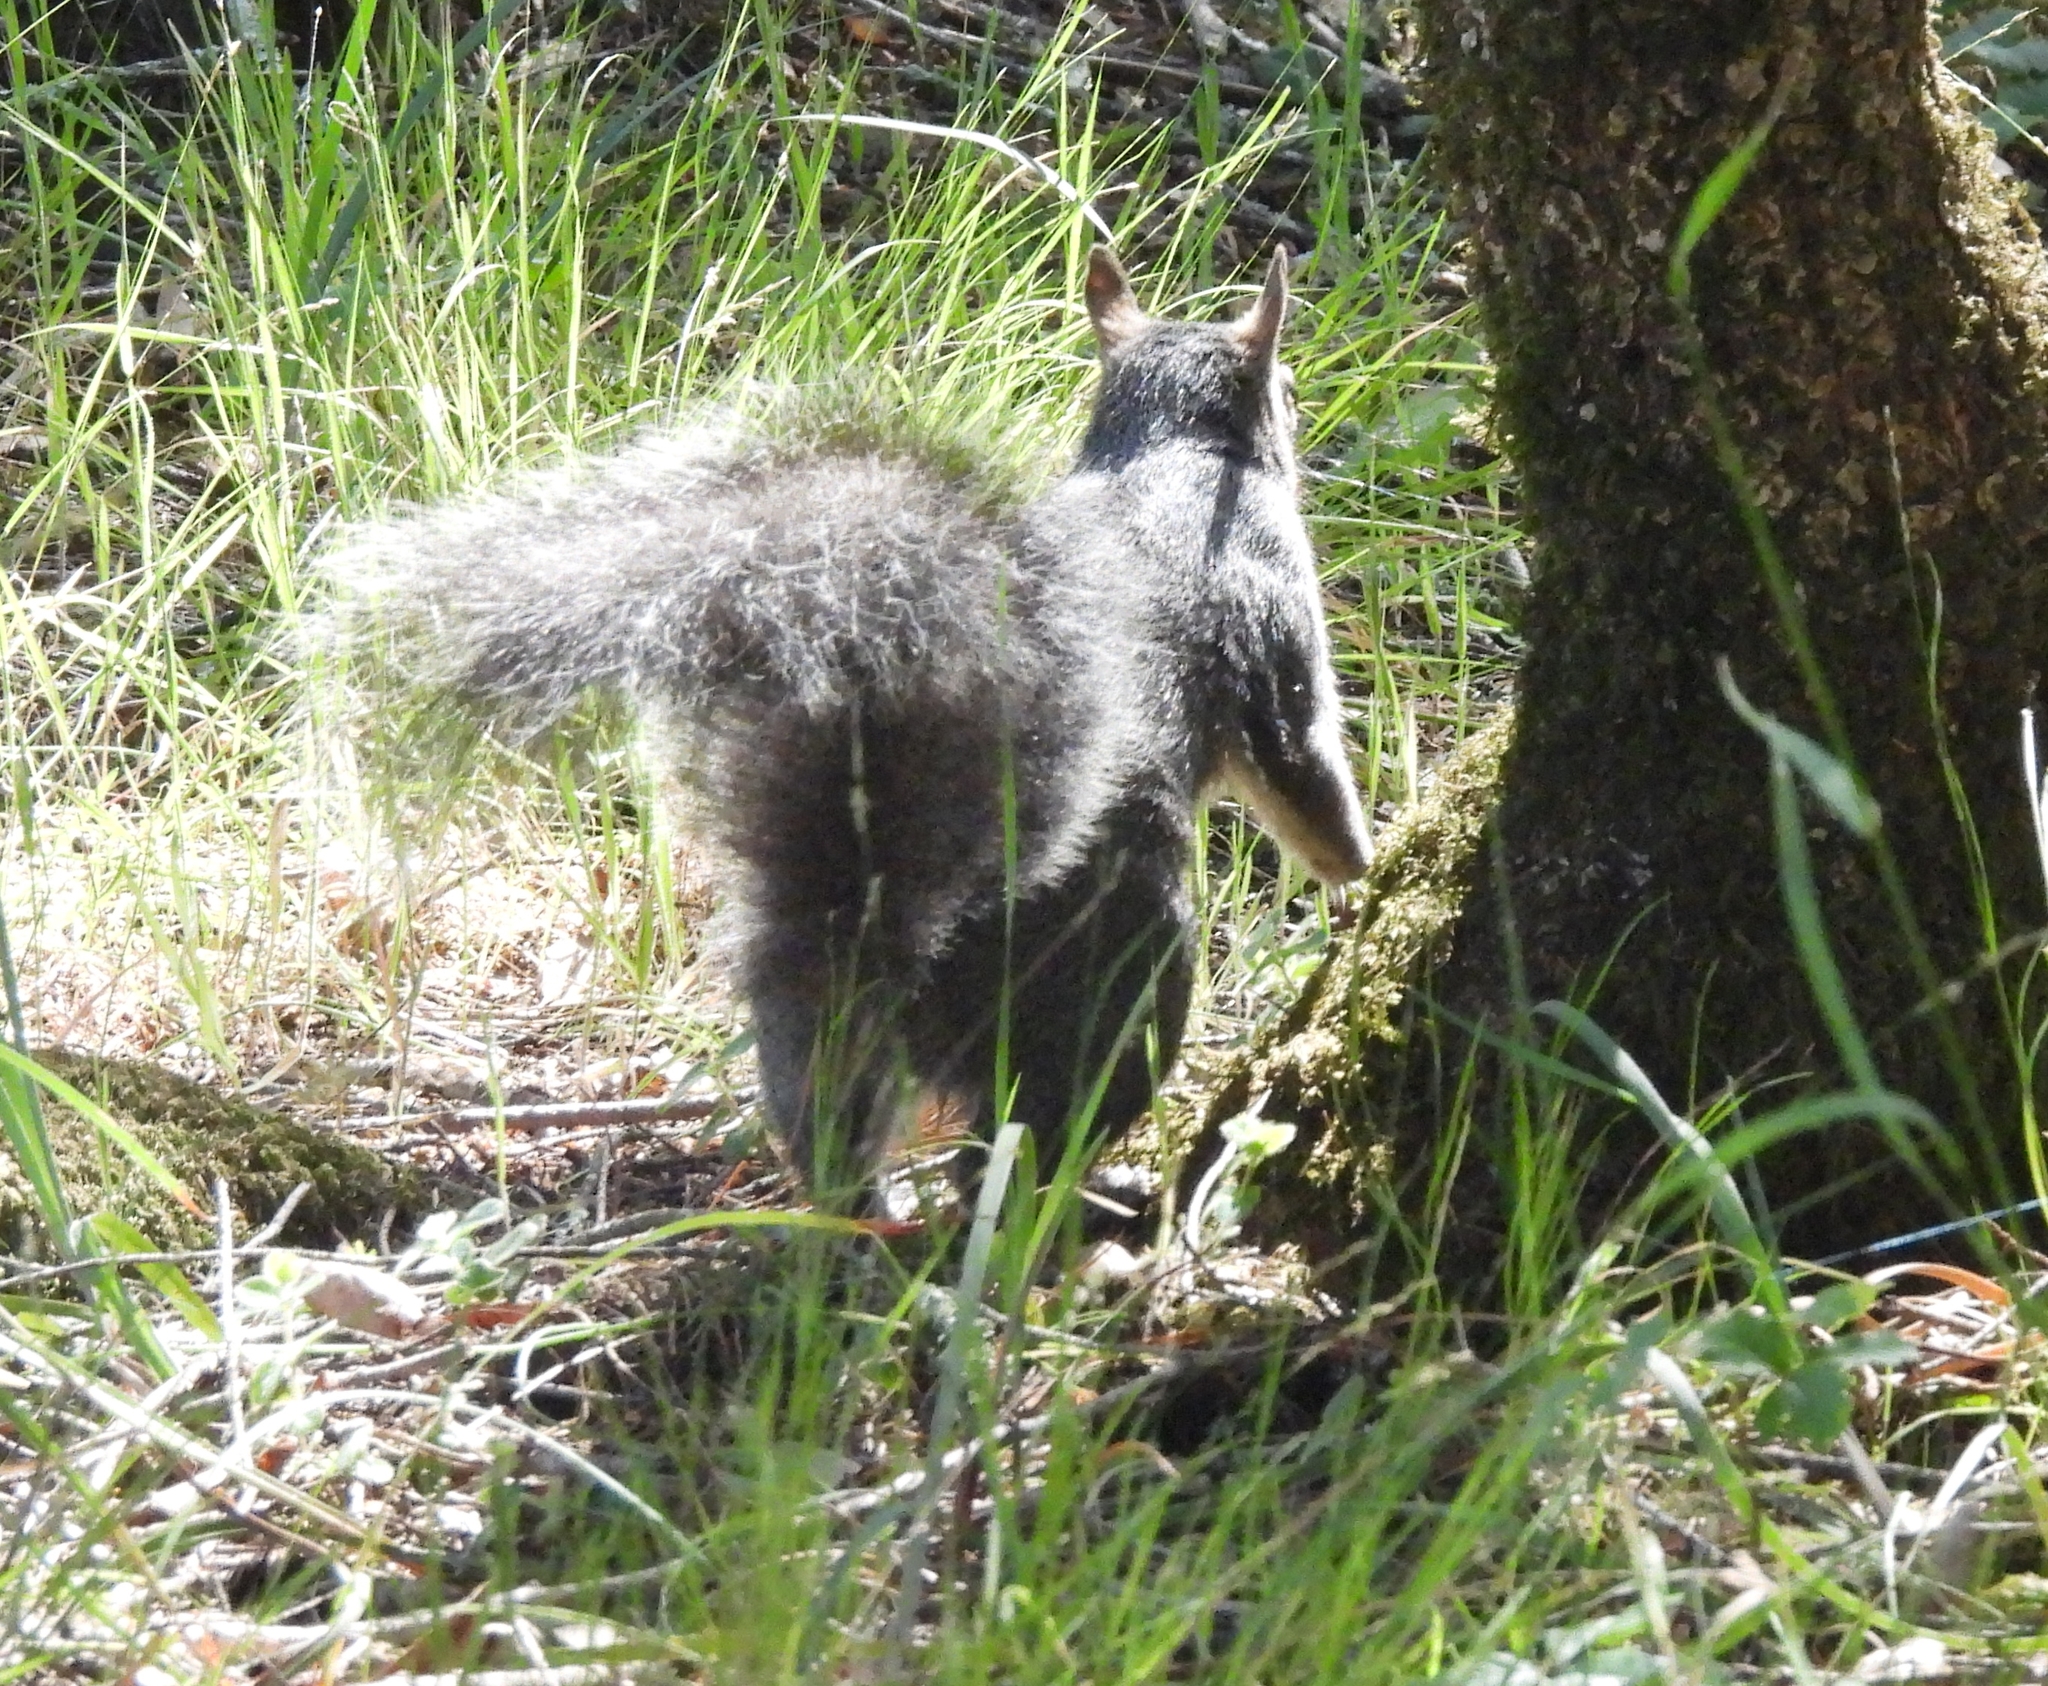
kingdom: Animalia
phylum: Chordata
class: Mammalia
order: Rodentia
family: Sciuridae
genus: Sciurus
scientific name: Sciurus griseus
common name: Western gray squirrel
